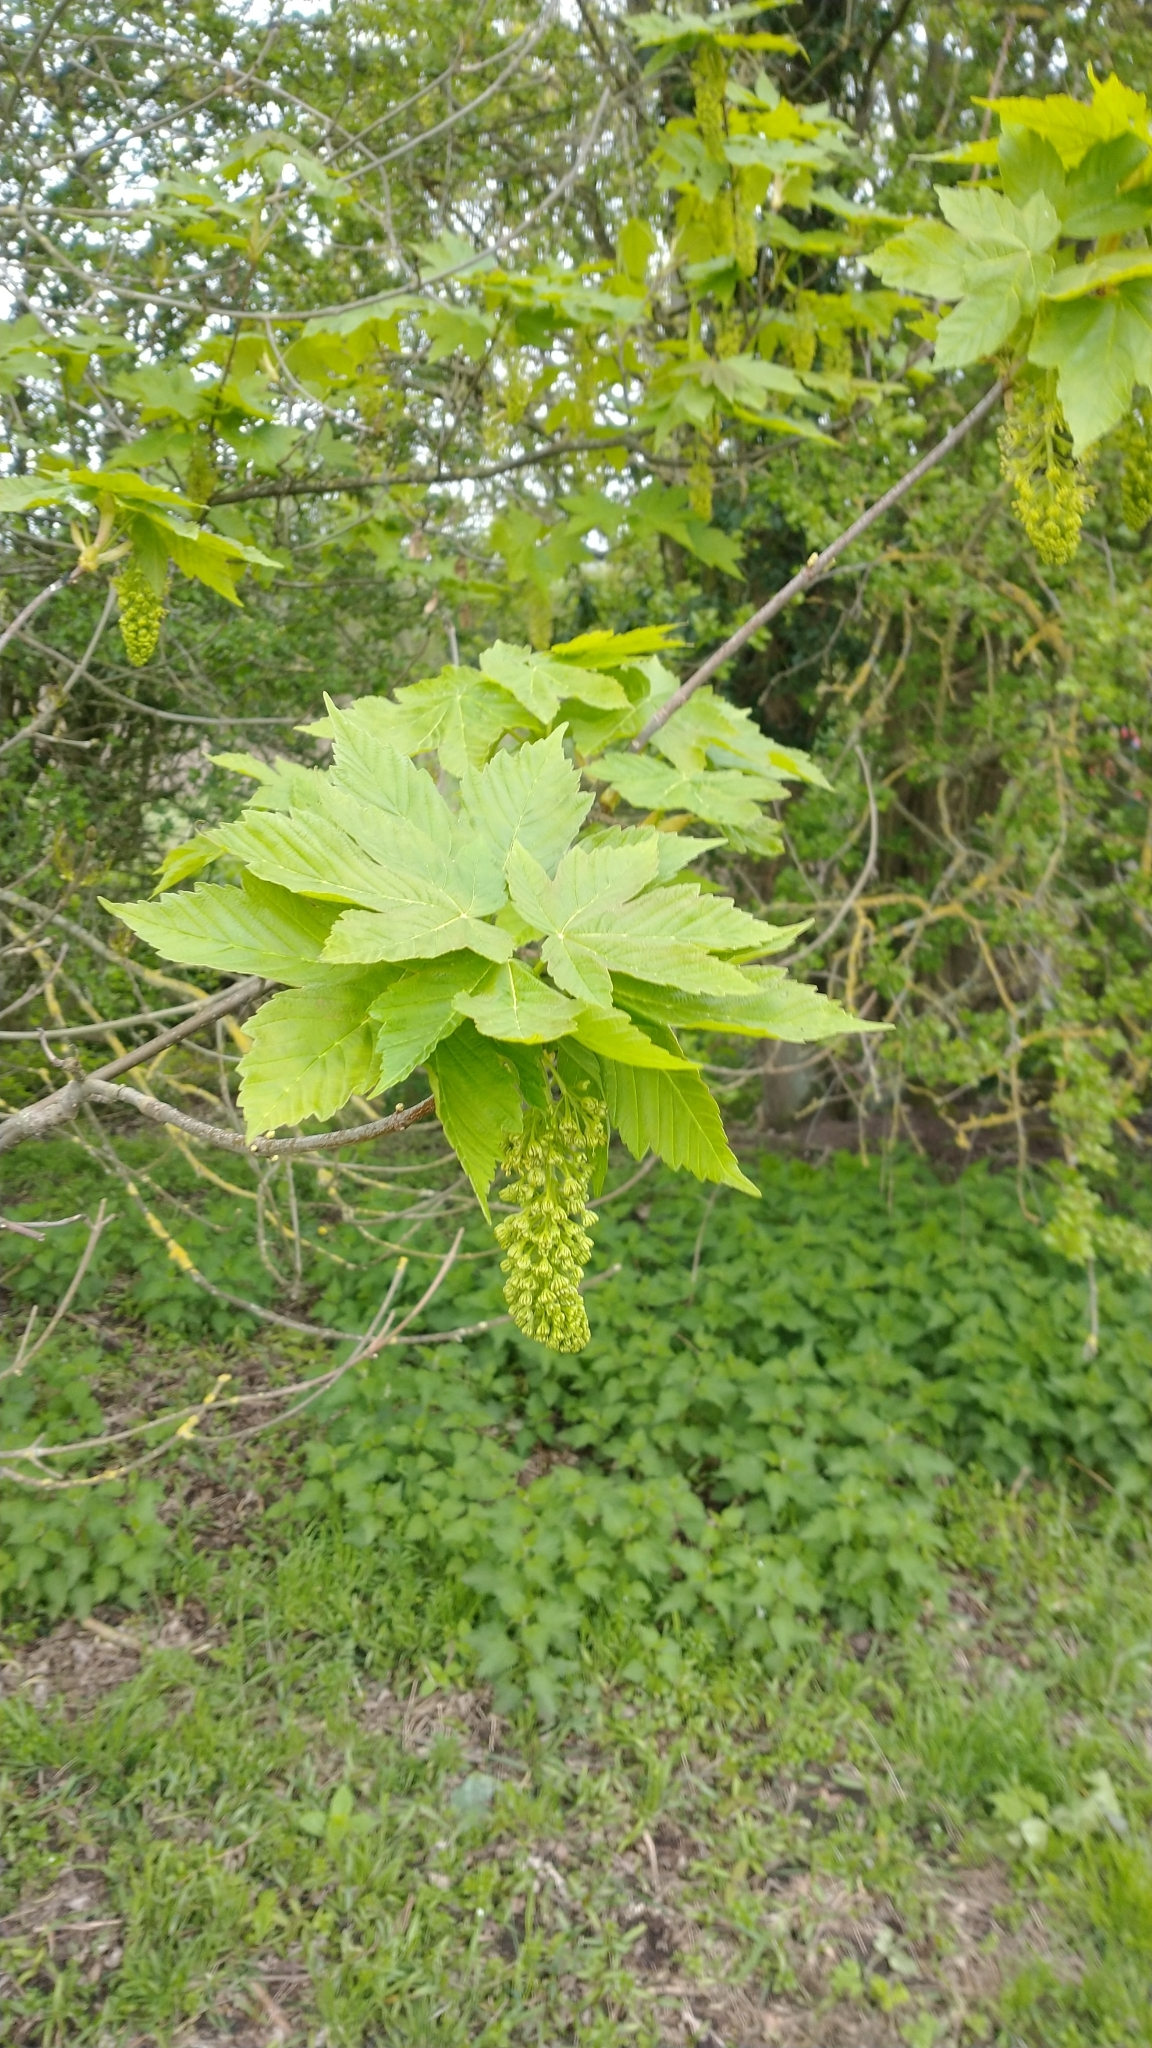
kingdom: Plantae
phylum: Tracheophyta
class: Magnoliopsida
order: Sapindales
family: Sapindaceae
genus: Acer
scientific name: Acer pseudoplatanus
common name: Sycamore
